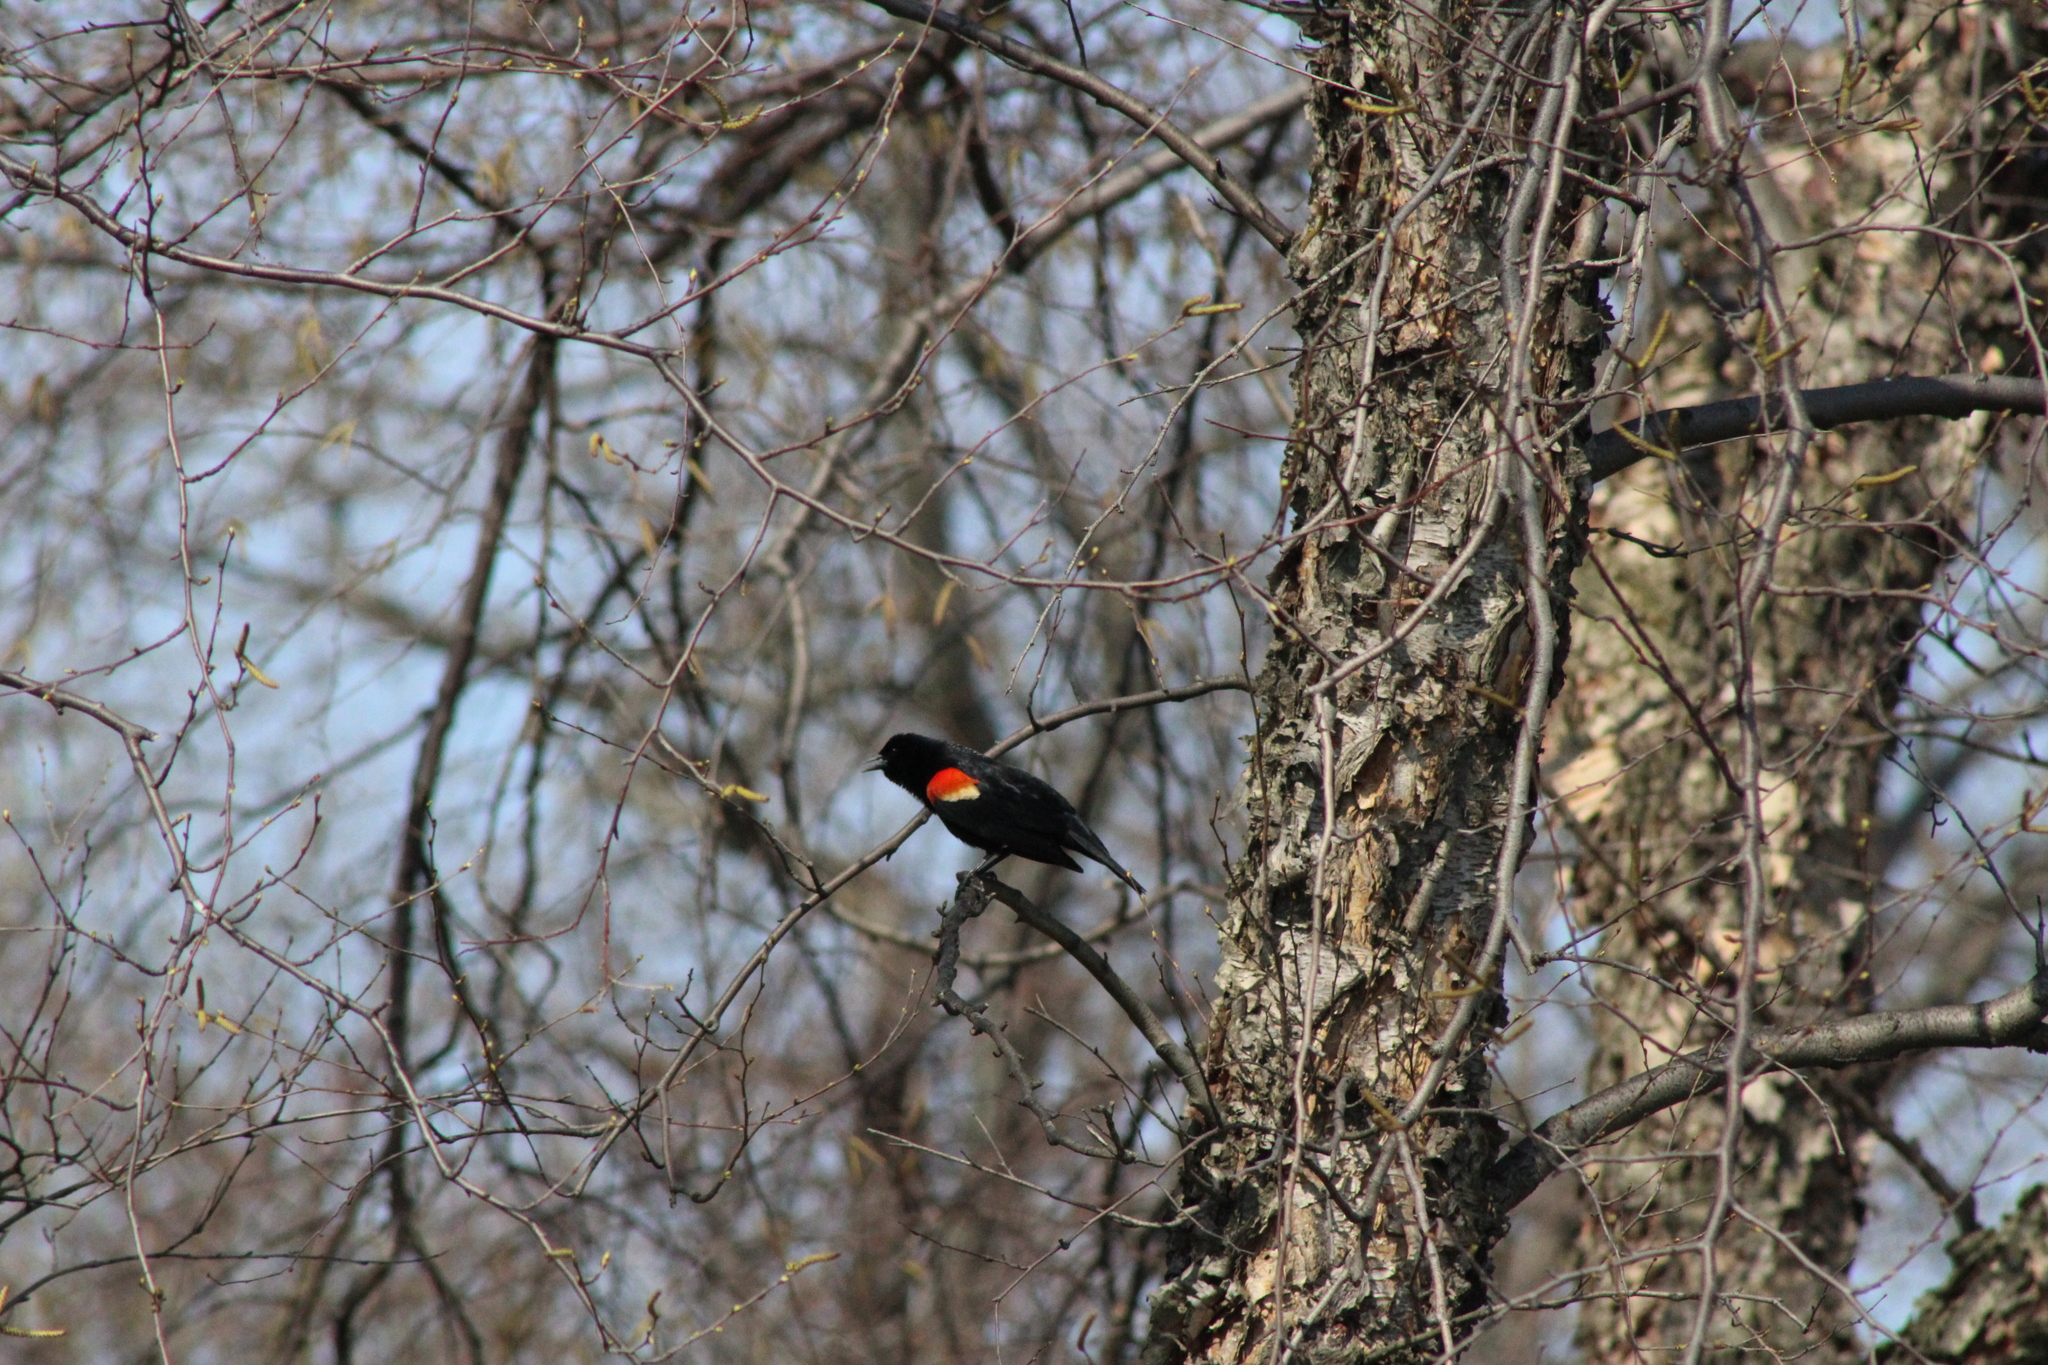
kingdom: Animalia
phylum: Chordata
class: Aves
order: Passeriformes
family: Icteridae
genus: Agelaius
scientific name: Agelaius phoeniceus
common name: Red-winged blackbird
